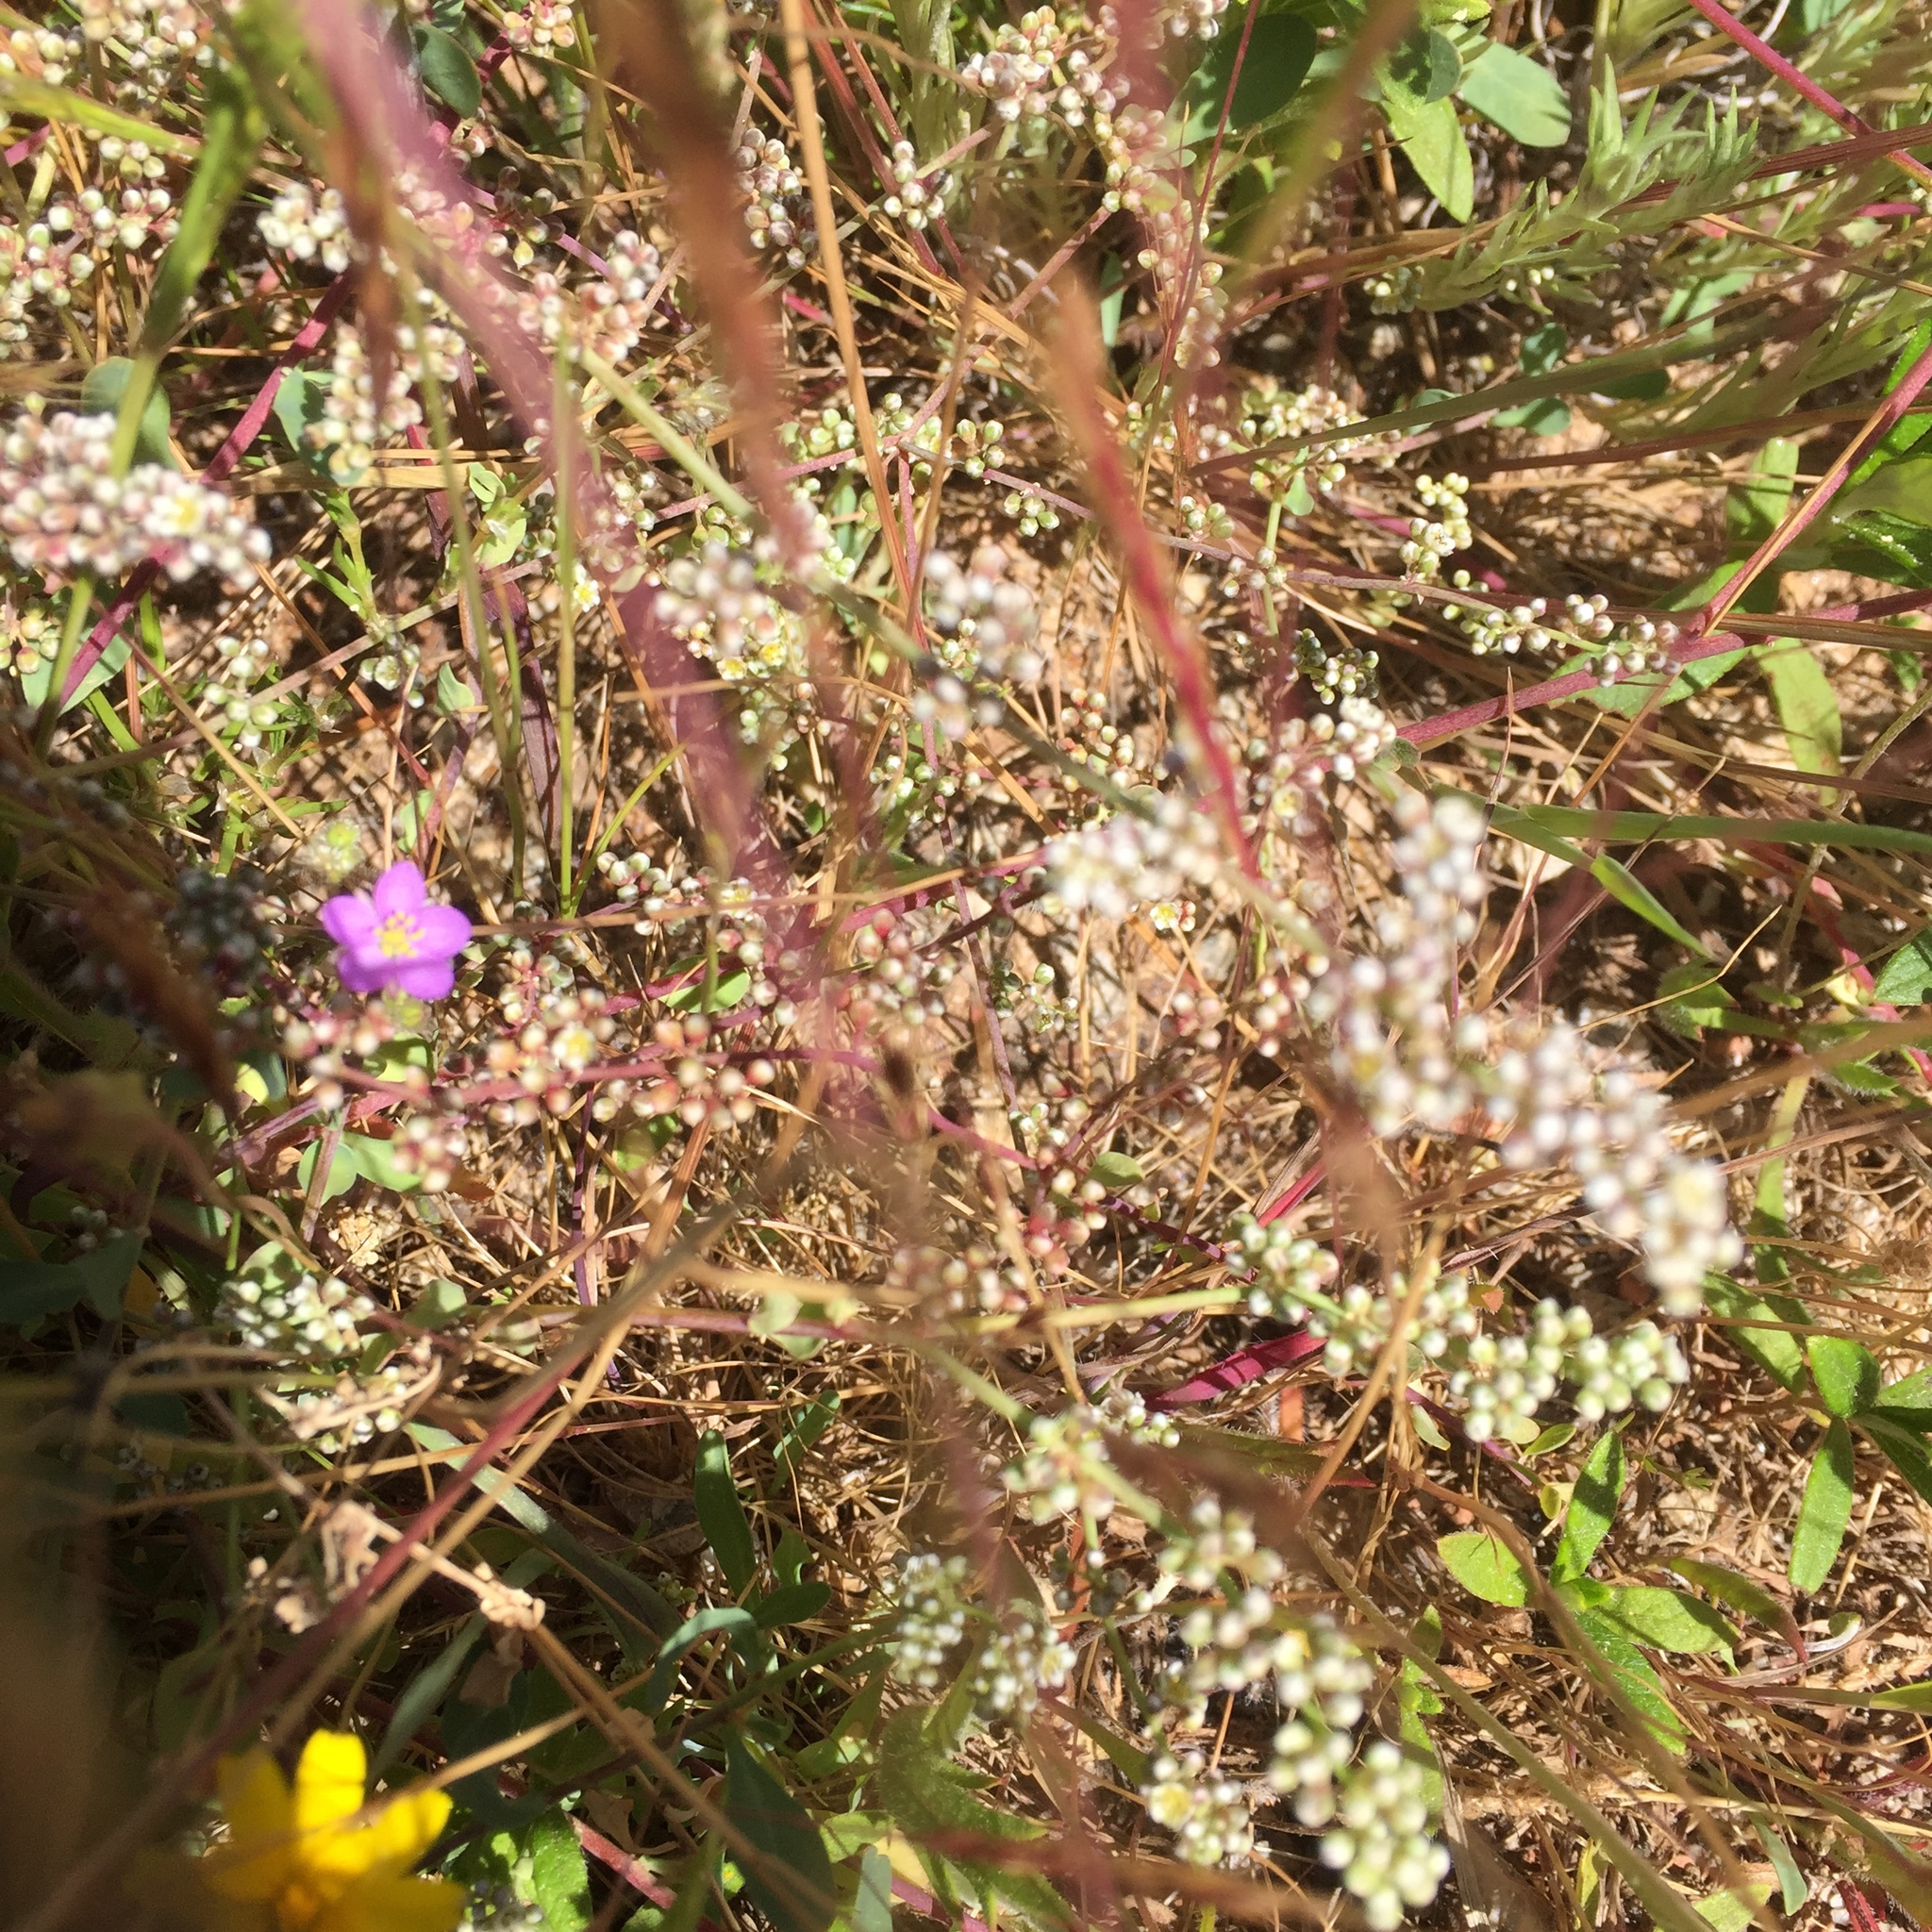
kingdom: Plantae
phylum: Tracheophyta
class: Magnoliopsida
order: Caryophyllales
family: Caryophyllaceae
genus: Corrigiola
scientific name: Corrigiola litoralis
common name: Strapwort
